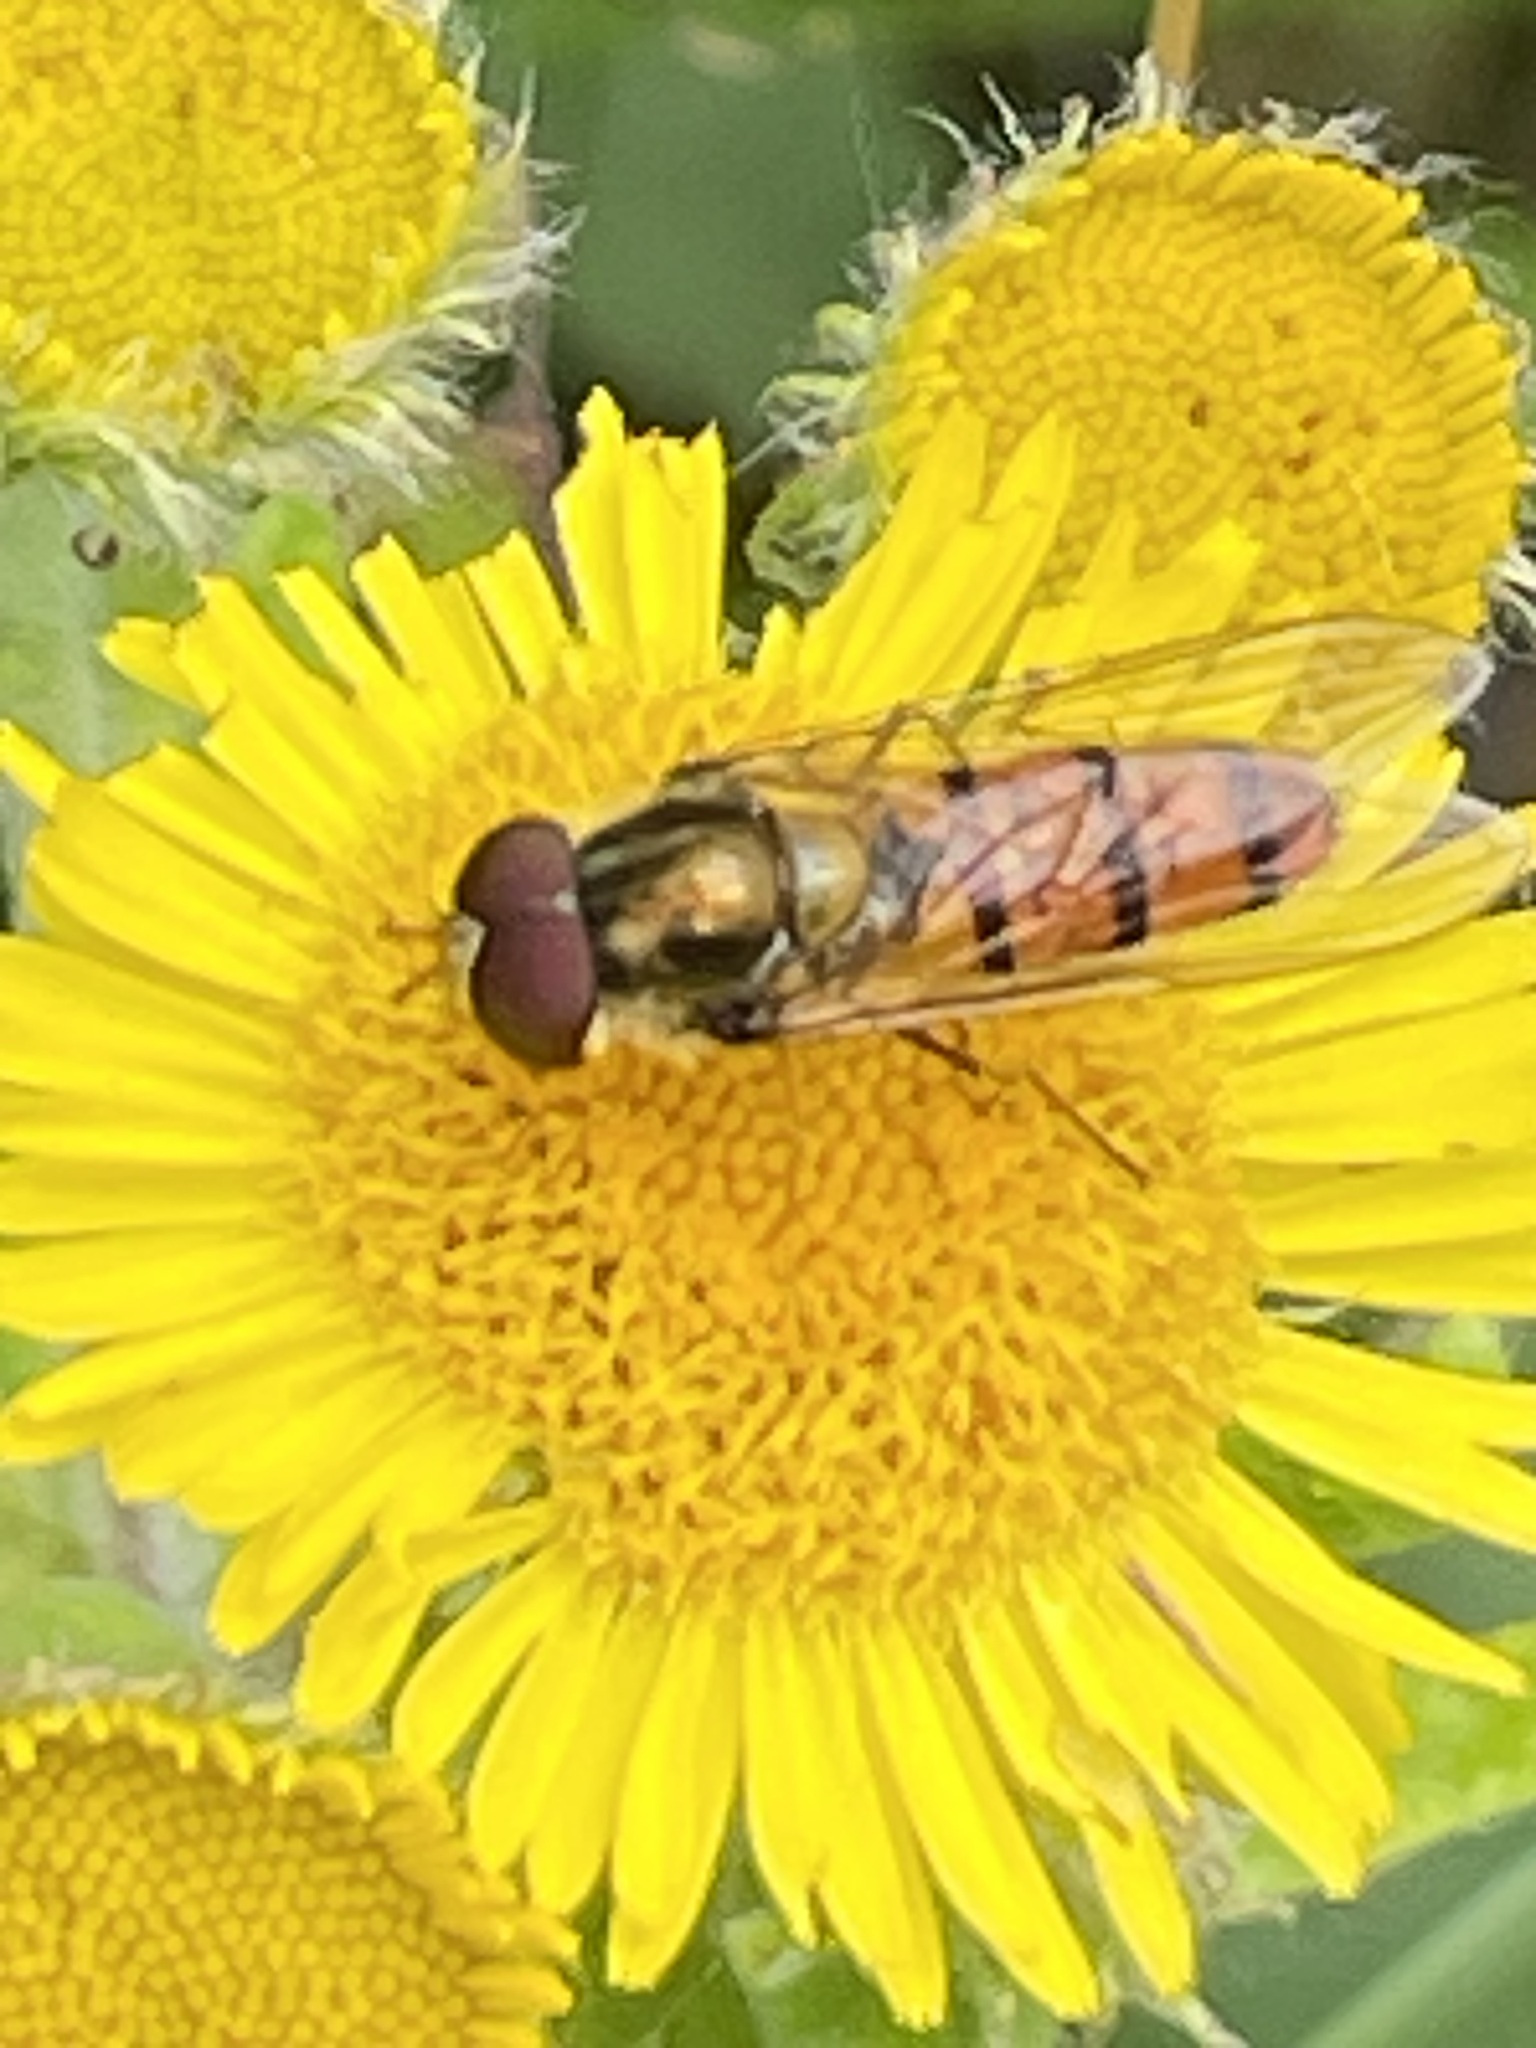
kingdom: Animalia
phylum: Arthropoda
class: Insecta
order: Diptera
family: Syrphidae
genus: Episyrphus
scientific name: Episyrphus balteatus
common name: Marmalade hoverfly
